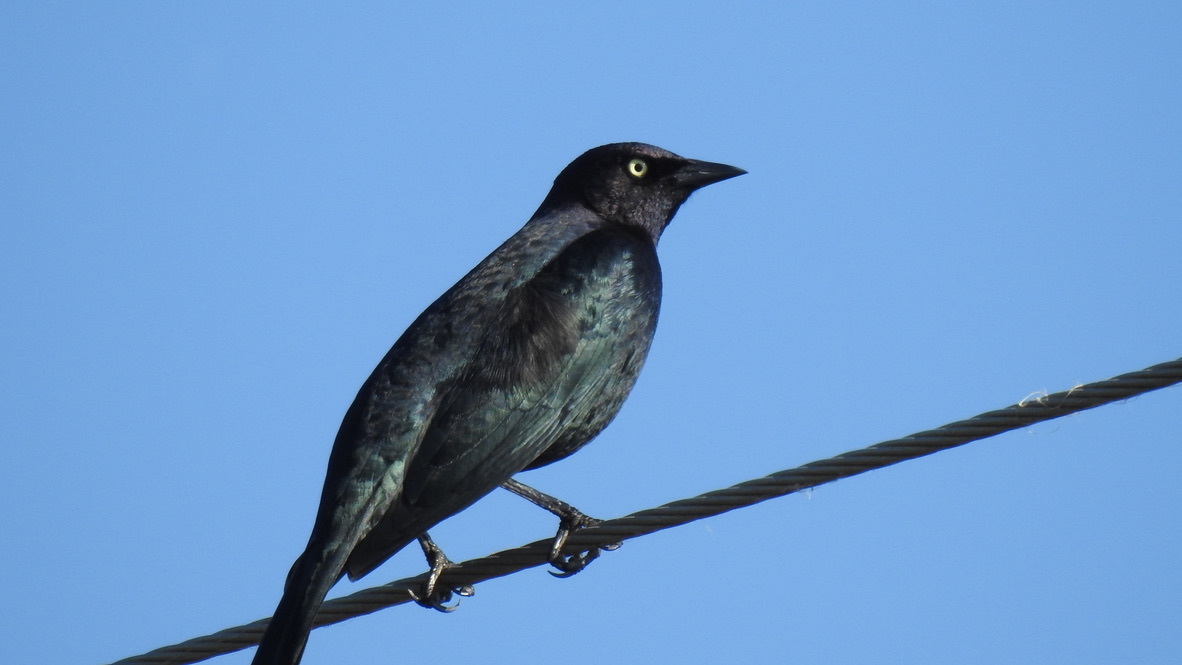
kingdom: Animalia
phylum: Chordata
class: Aves
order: Passeriformes
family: Icteridae
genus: Euphagus
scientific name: Euphagus cyanocephalus
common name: Brewer's blackbird
